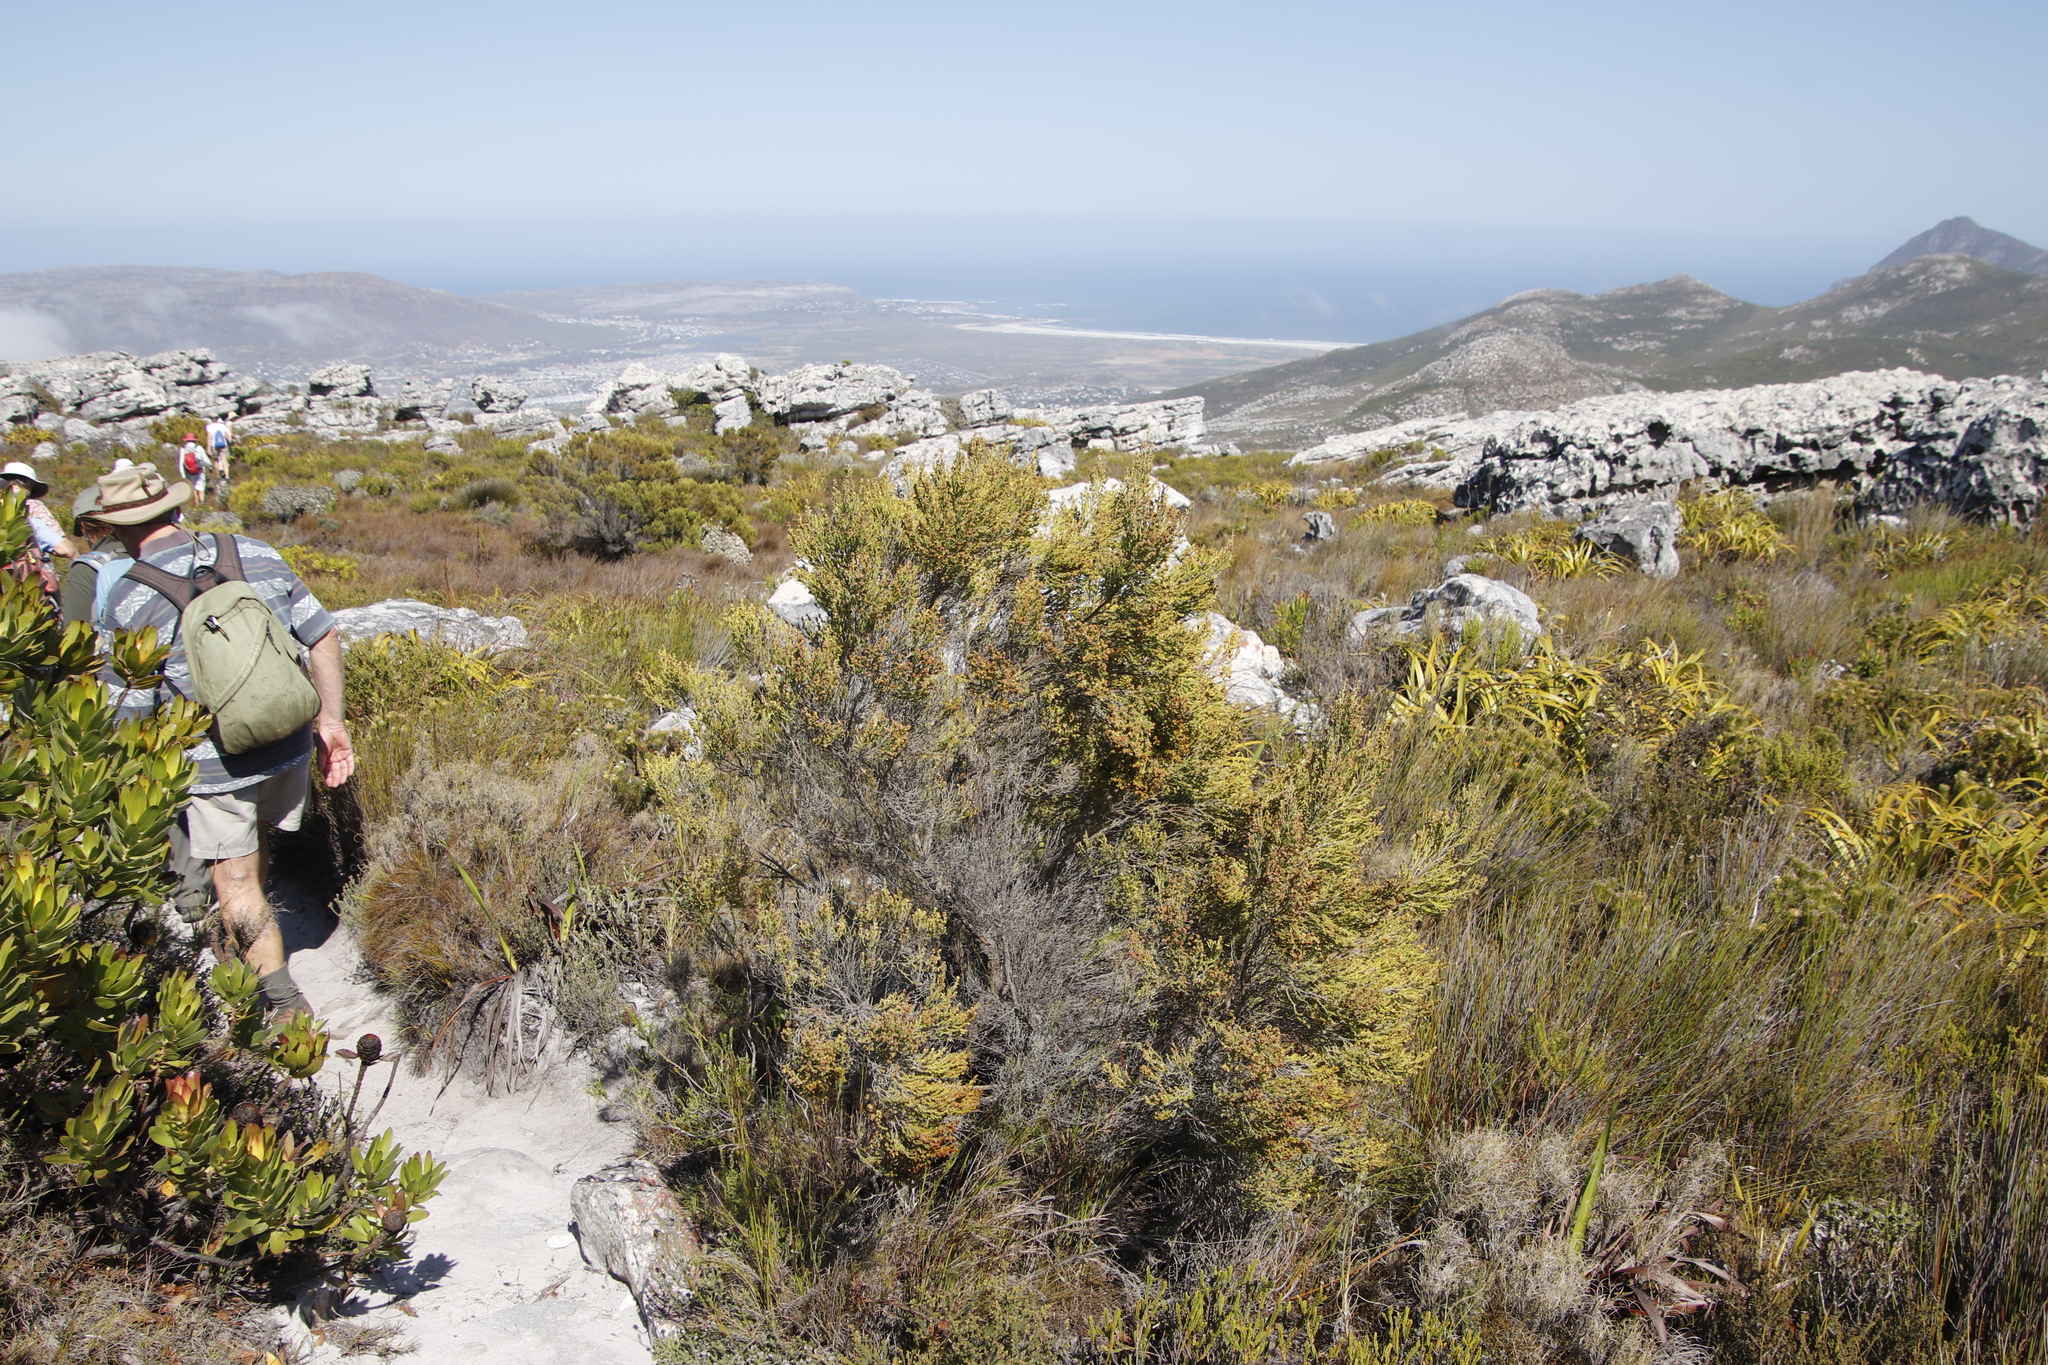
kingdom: Plantae
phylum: Tracheophyta
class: Magnoliopsida
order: Ericales
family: Ericaceae
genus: Erica
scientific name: Erica tristis
